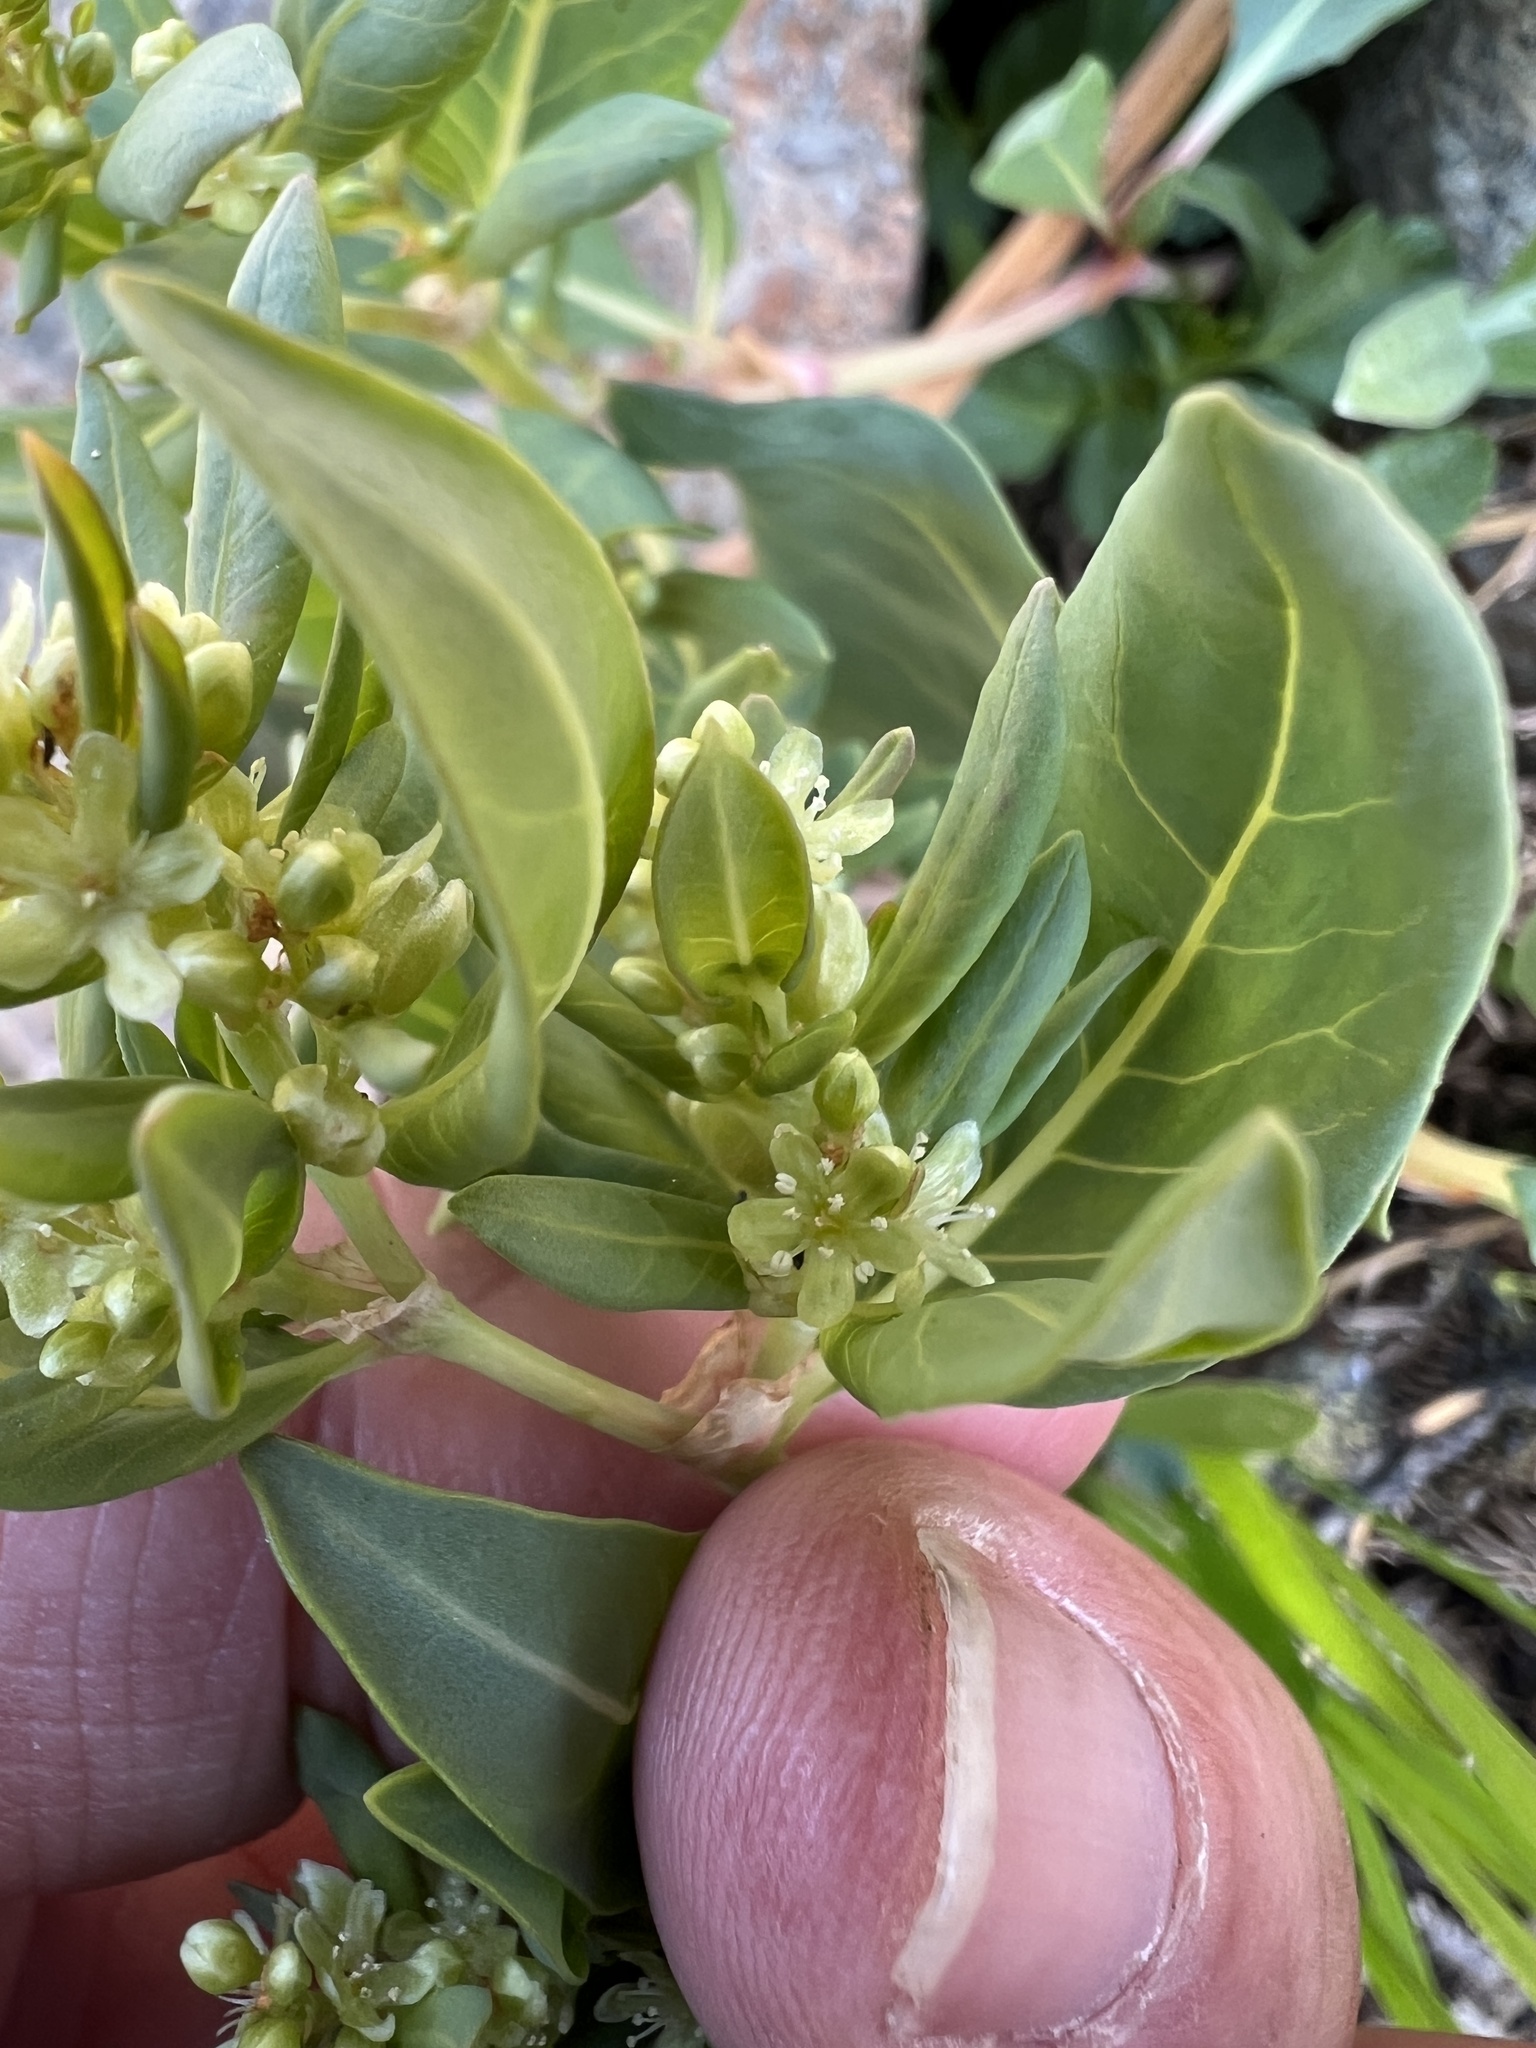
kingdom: Plantae
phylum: Tracheophyta
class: Magnoliopsida
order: Caryophyllales
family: Polygonaceae
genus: Koenigia
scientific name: Koenigia davisiae
